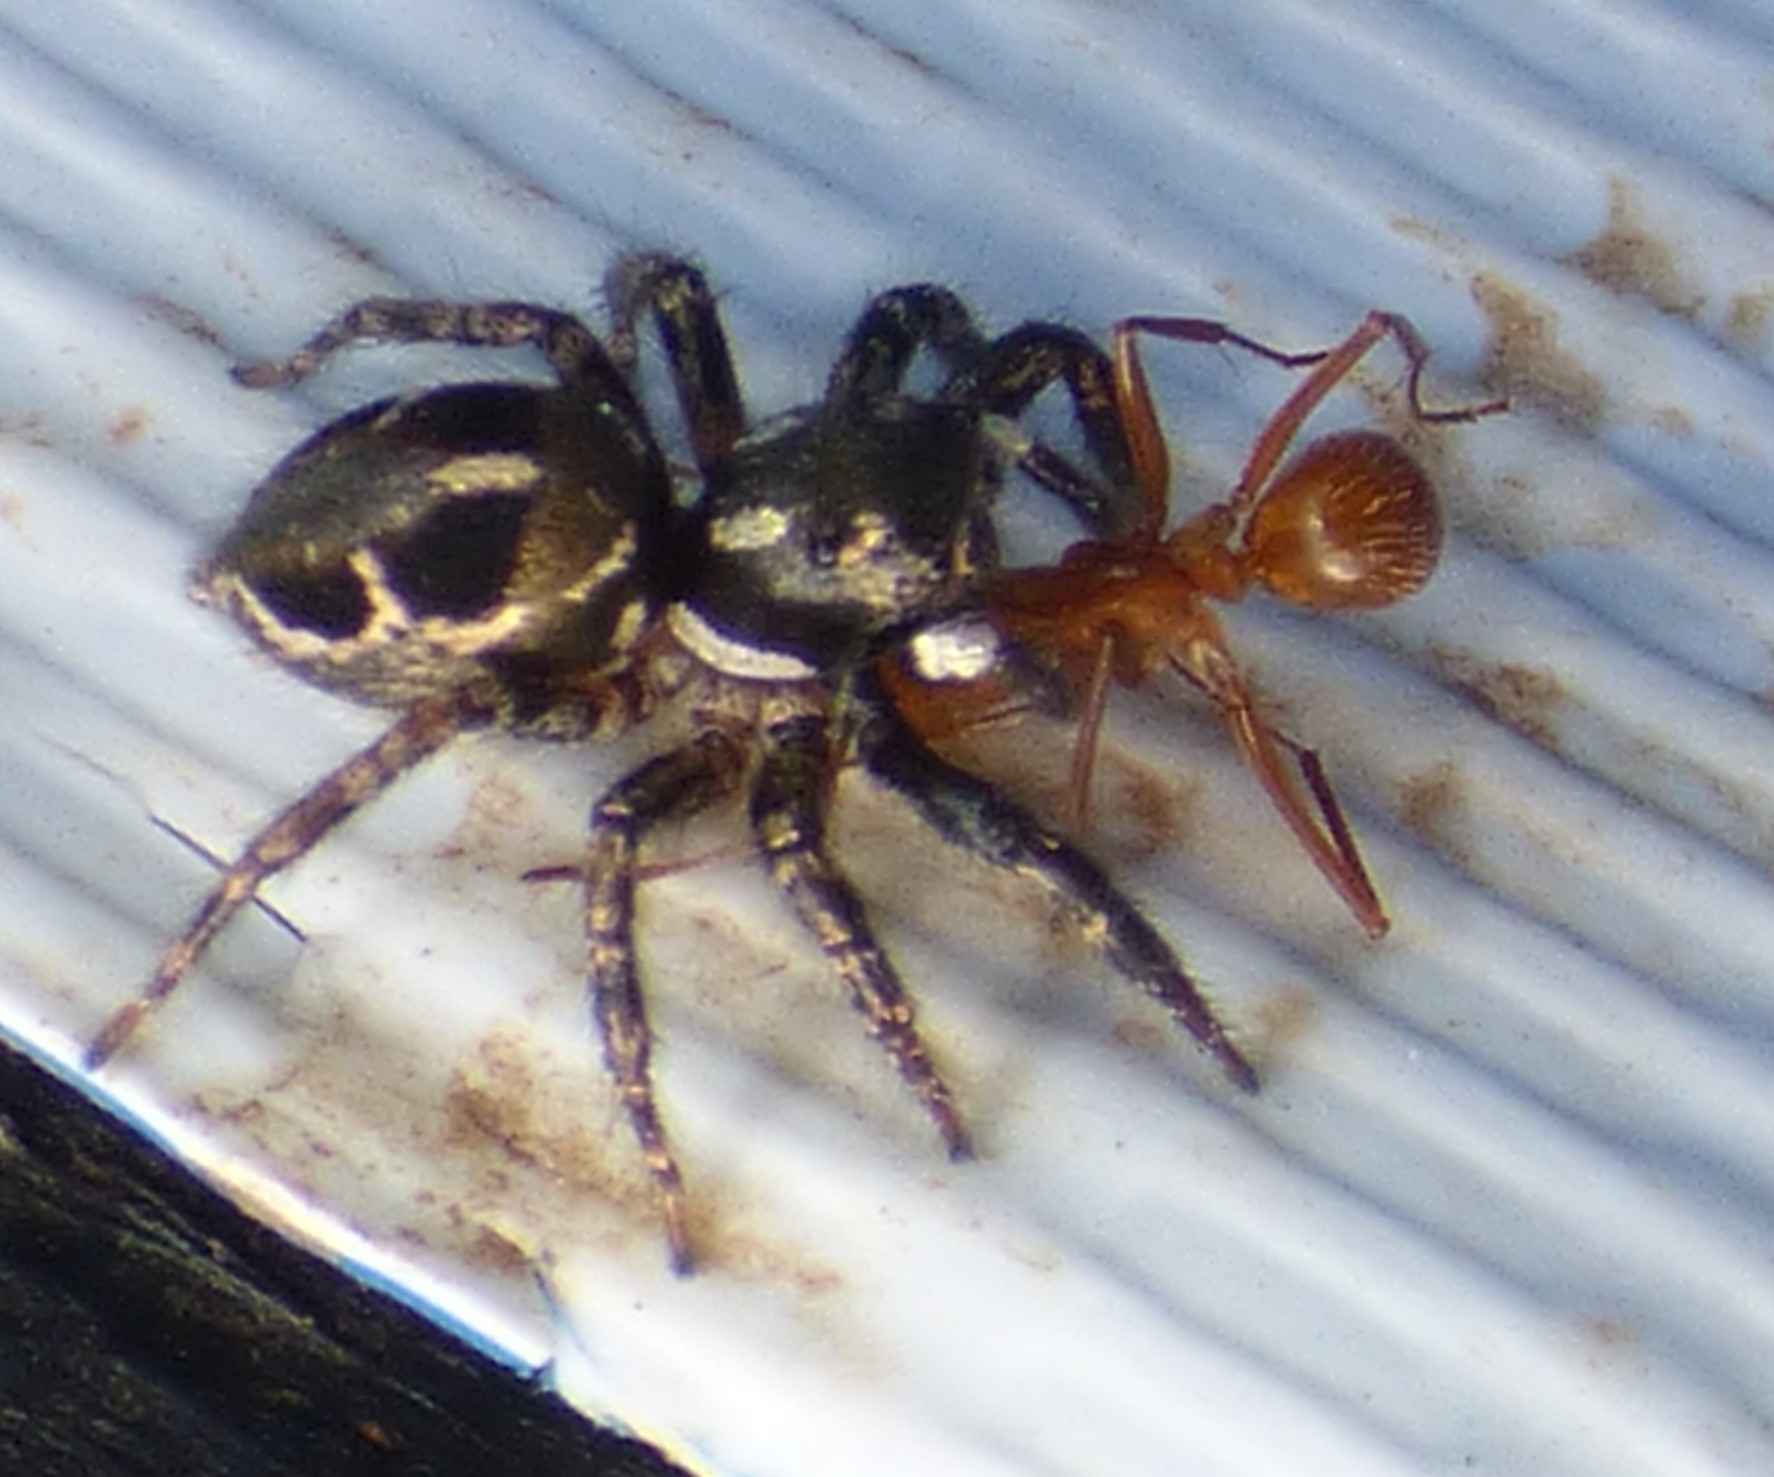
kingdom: Animalia
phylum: Arthropoda
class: Arachnida
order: Araneae
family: Salticidae
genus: Anasaitis
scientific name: Anasaitis canosa
